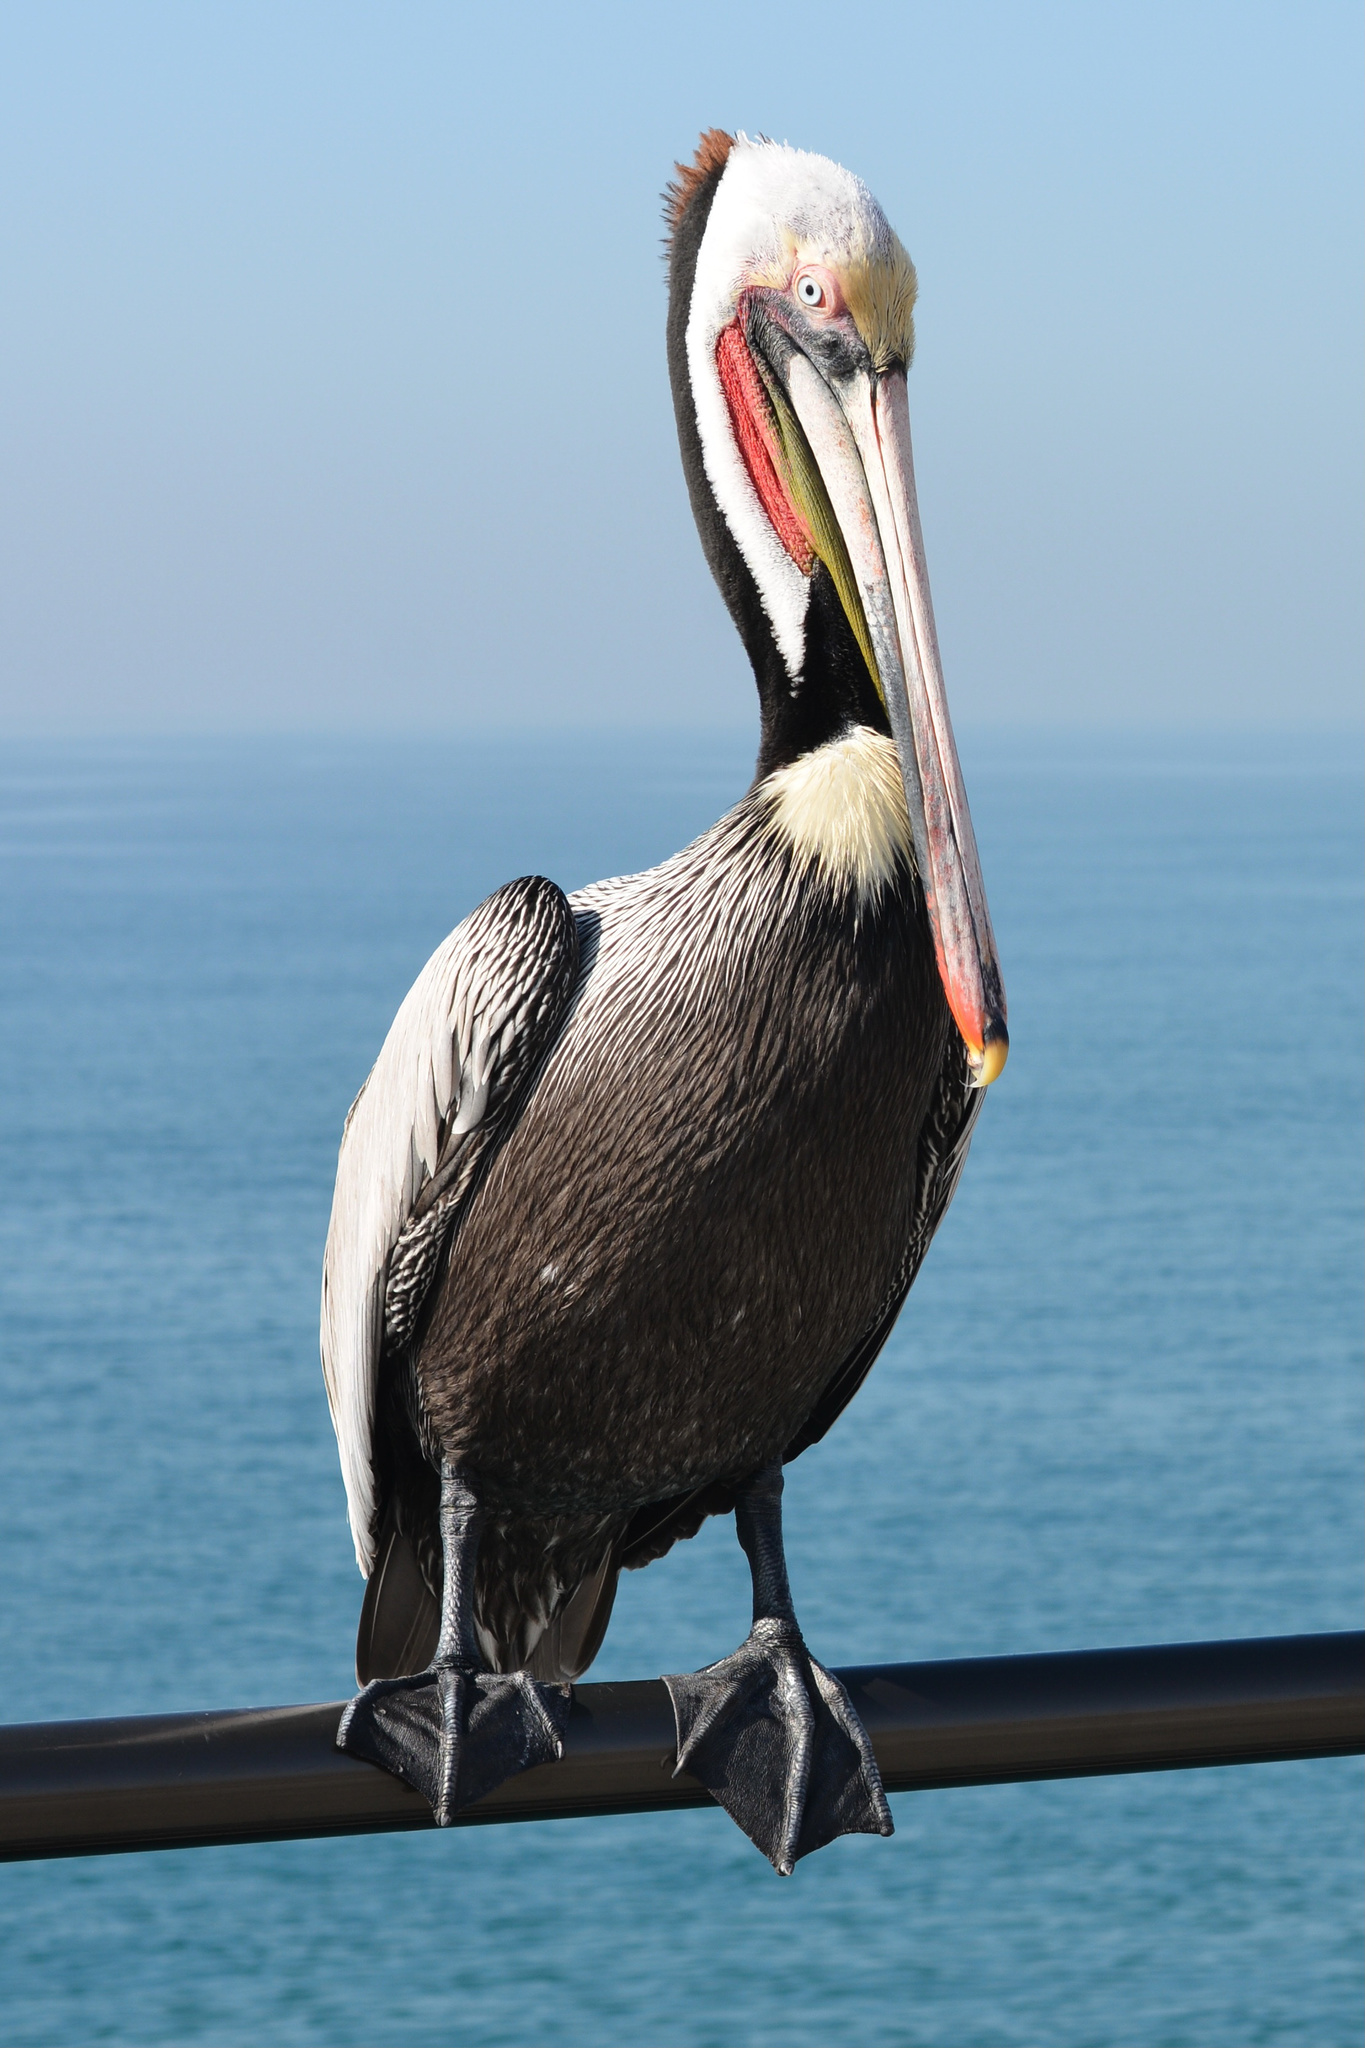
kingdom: Animalia
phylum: Chordata
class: Aves
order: Pelecaniformes
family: Pelecanidae
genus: Pelecanus
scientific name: Pelecanus occidentalis
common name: Brown pelican
